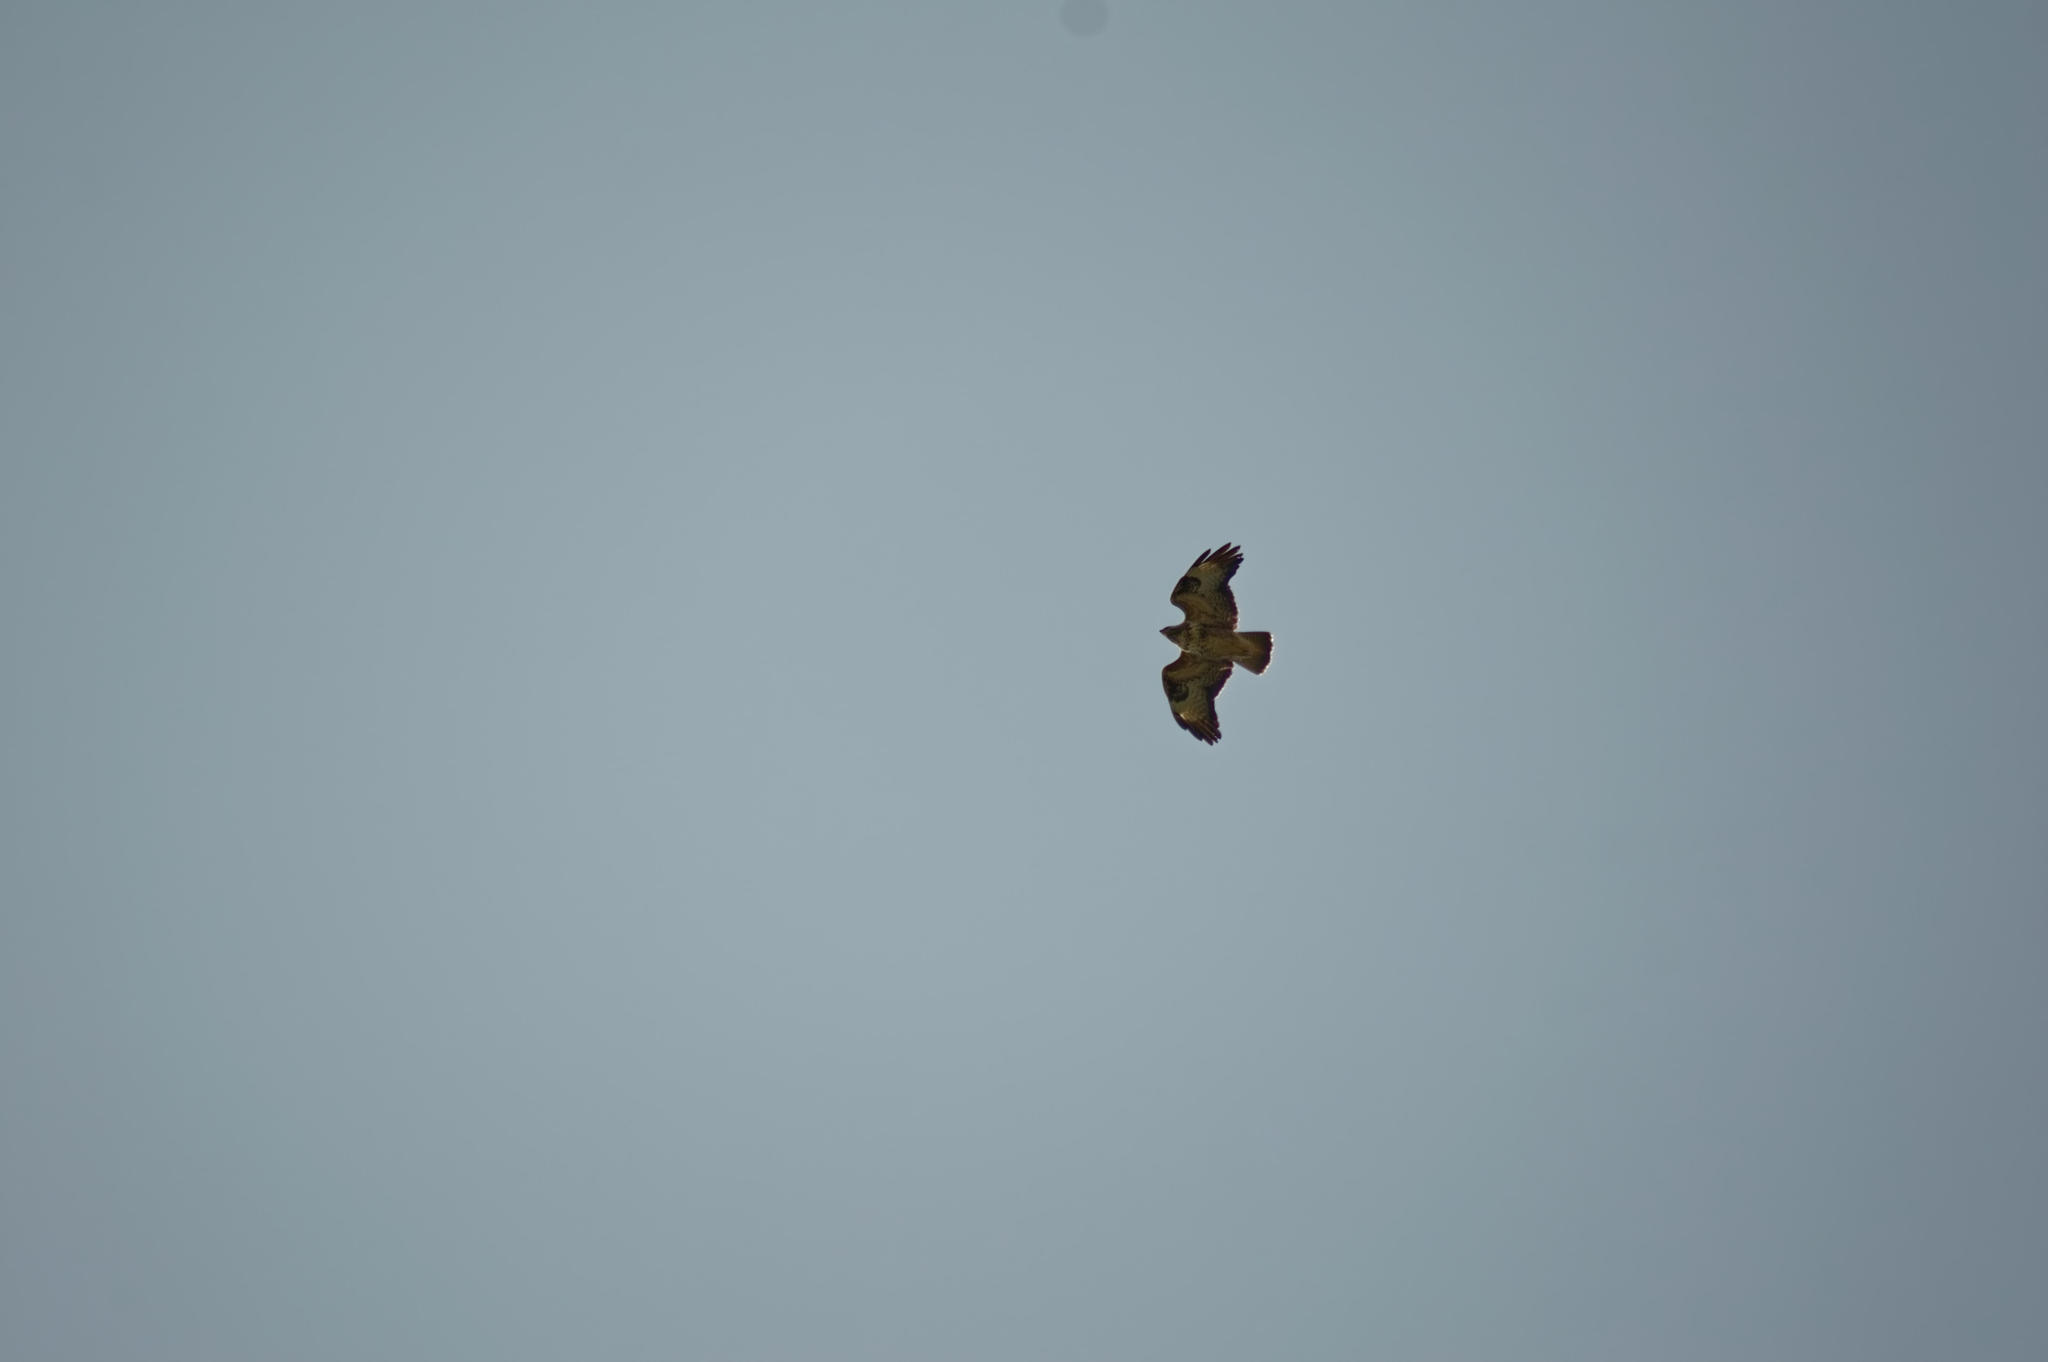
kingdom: Animalia
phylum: Chordata
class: Aves
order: Accipitriformes
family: Accipitridae
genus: Buteo
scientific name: Buteo buteo
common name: Common buzzard
